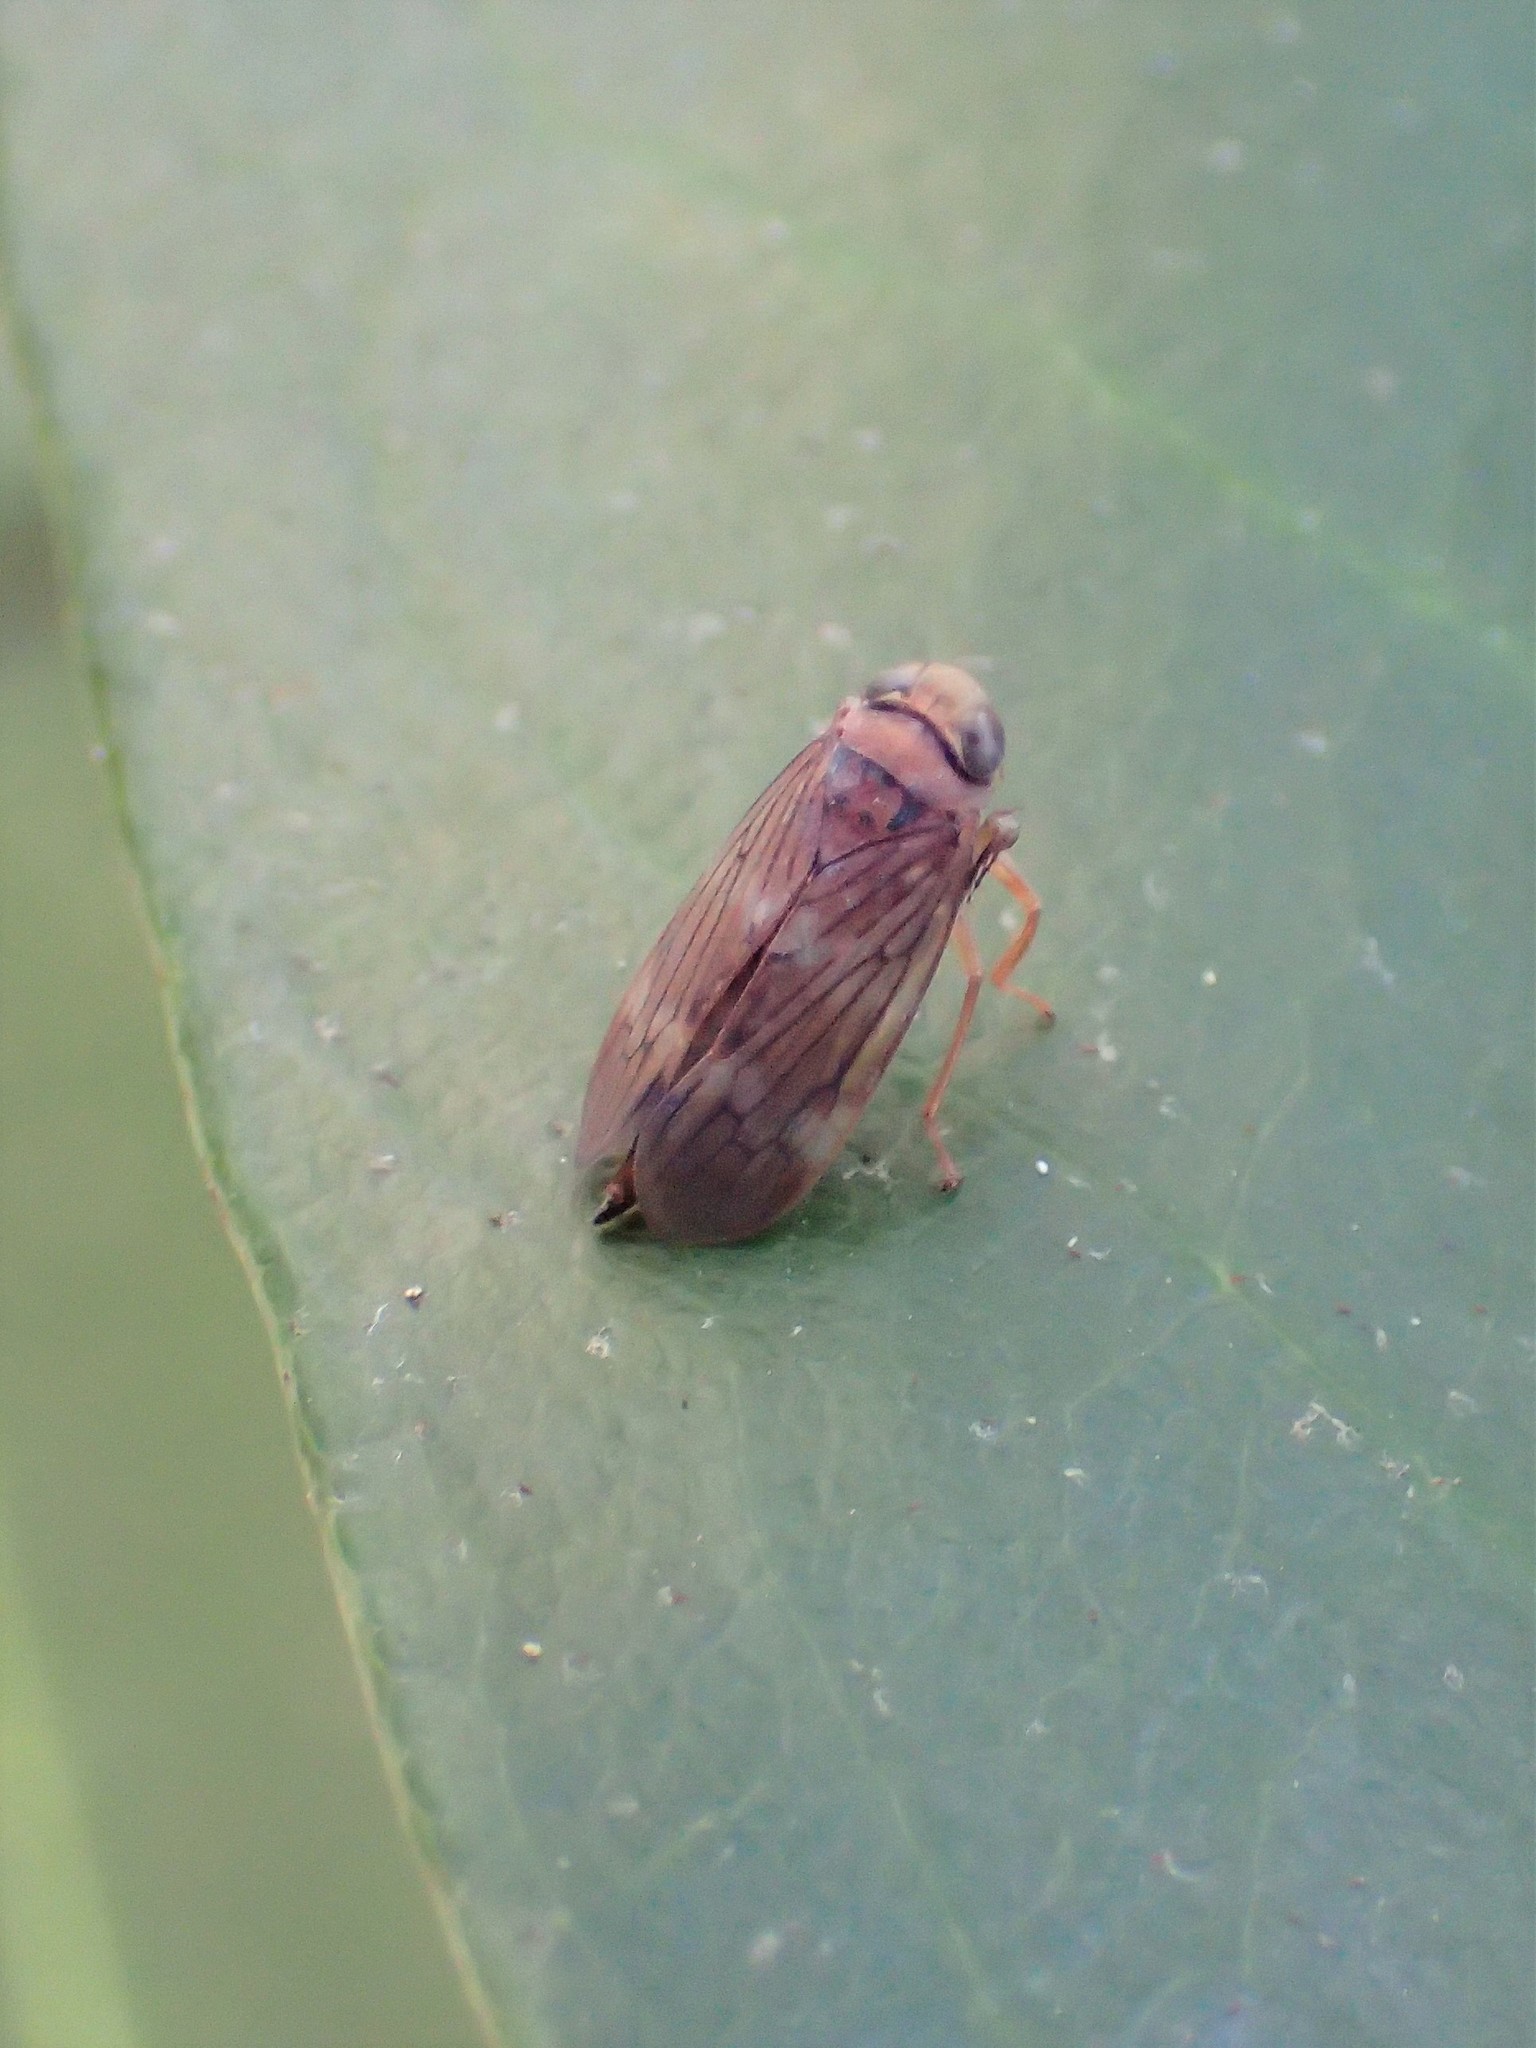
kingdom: Animalia
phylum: Arthropoda
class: Insecta
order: Hemiptera
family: Cicadellidae
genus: Jikradia
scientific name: Jikradia olitoria
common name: Coppery leafhopper
